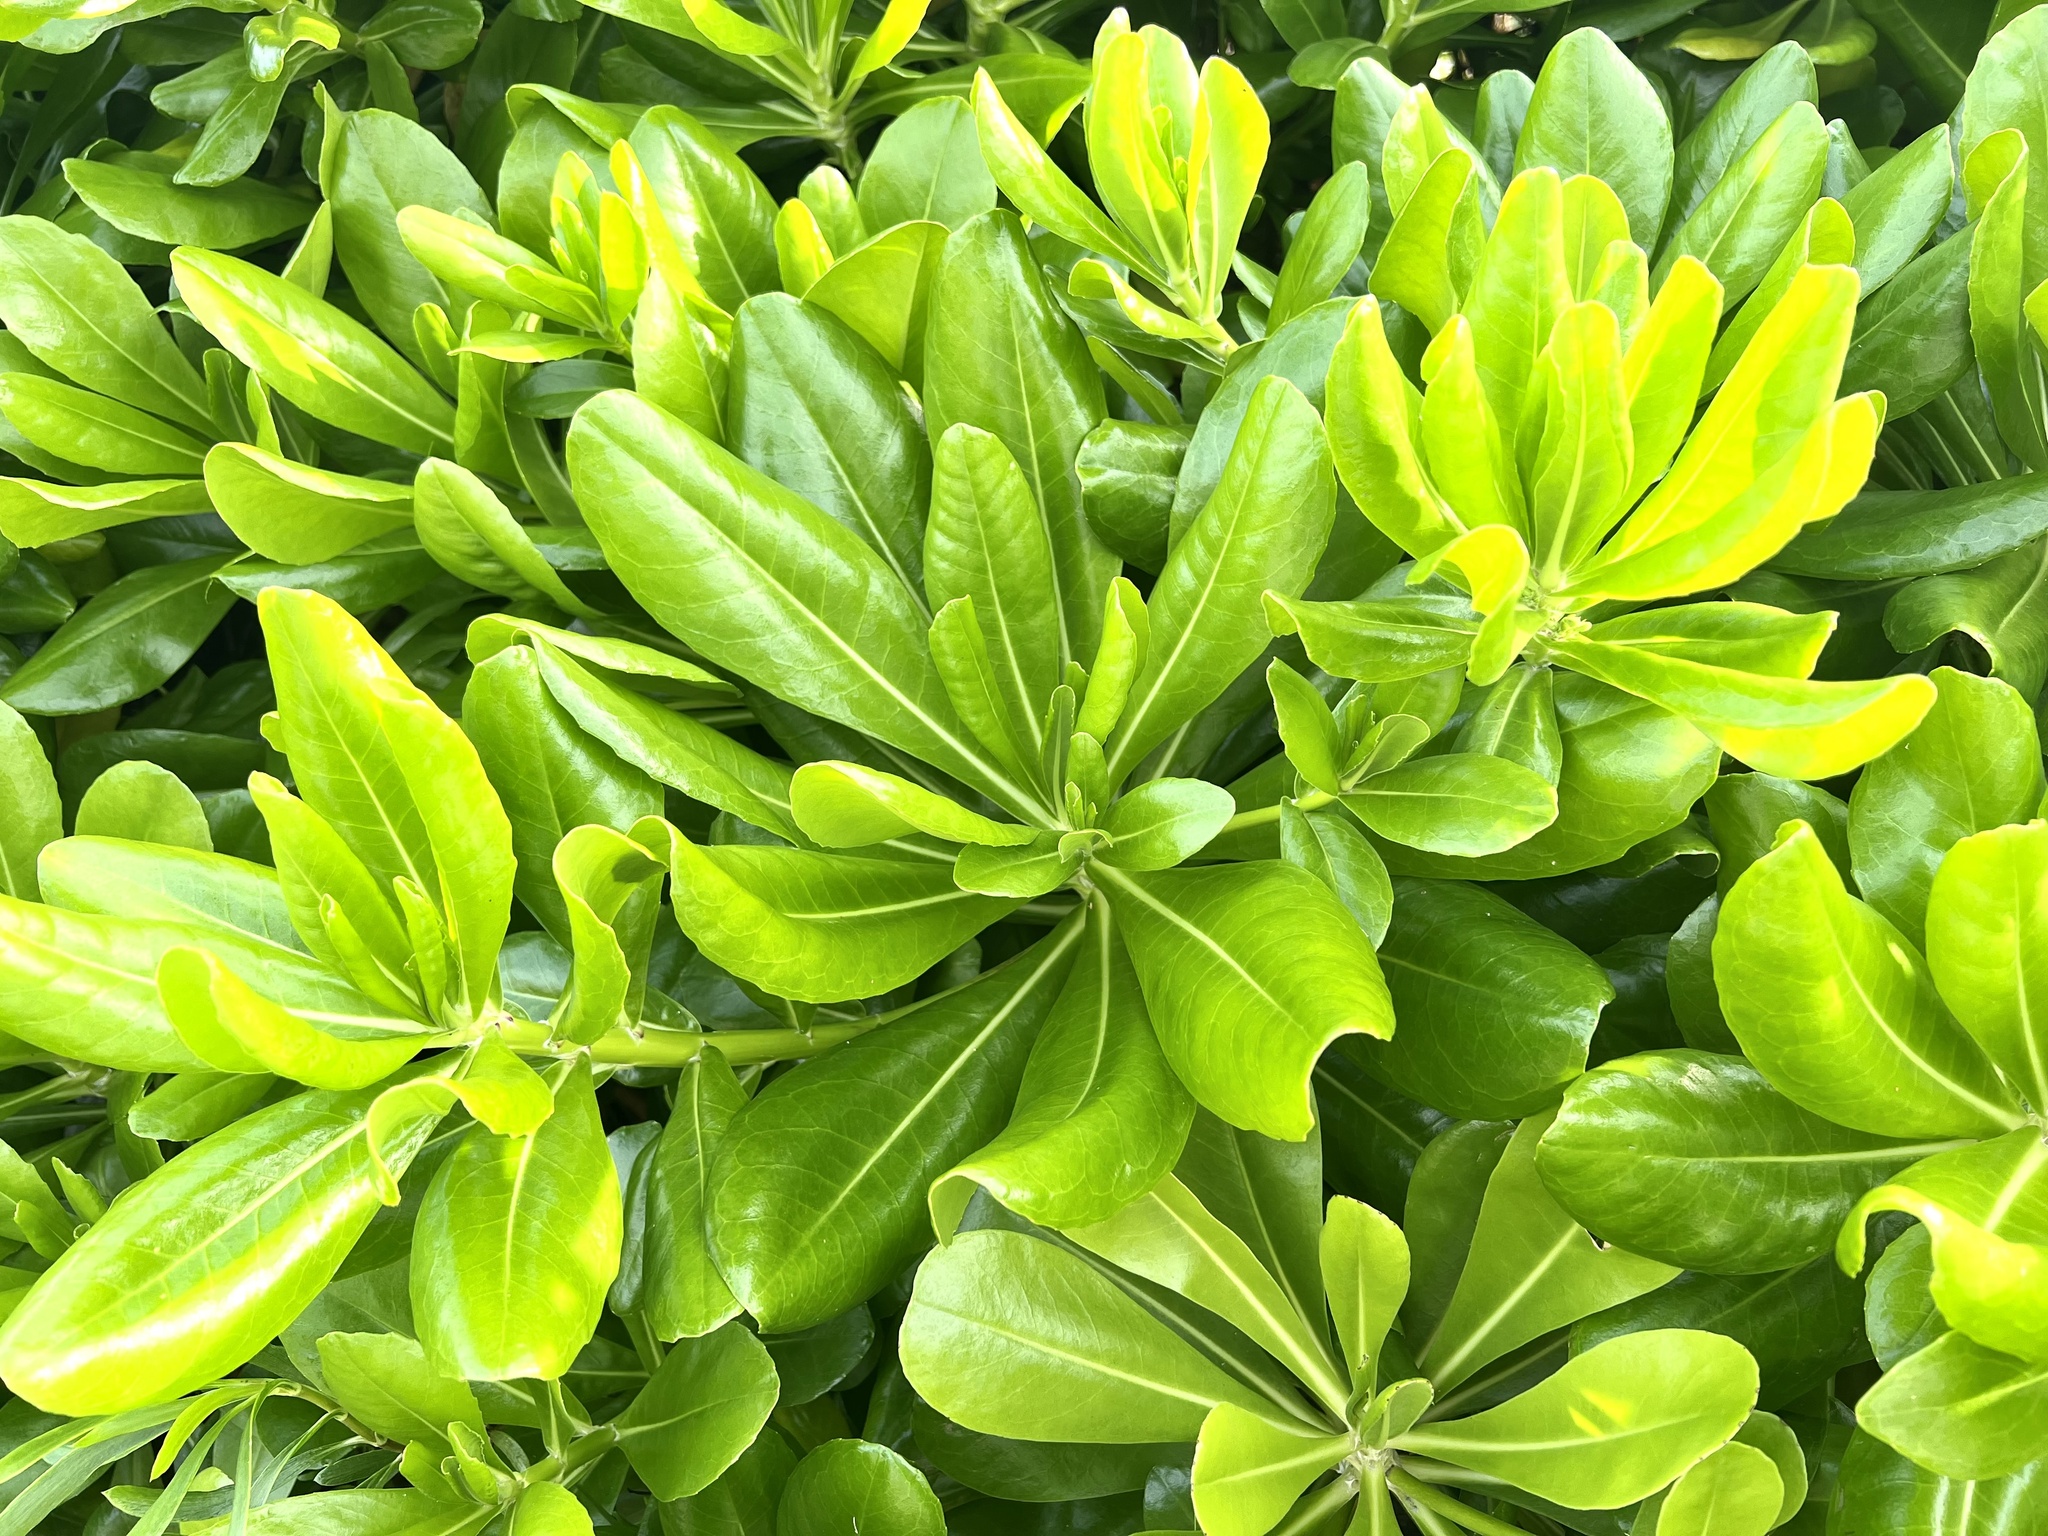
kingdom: Plantae
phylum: Tracheophyta
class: Magnoliopsida
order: Asterales
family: Goodeniaceae
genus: Scaevola
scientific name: Scaevola taccada
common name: Sea lettucetree
